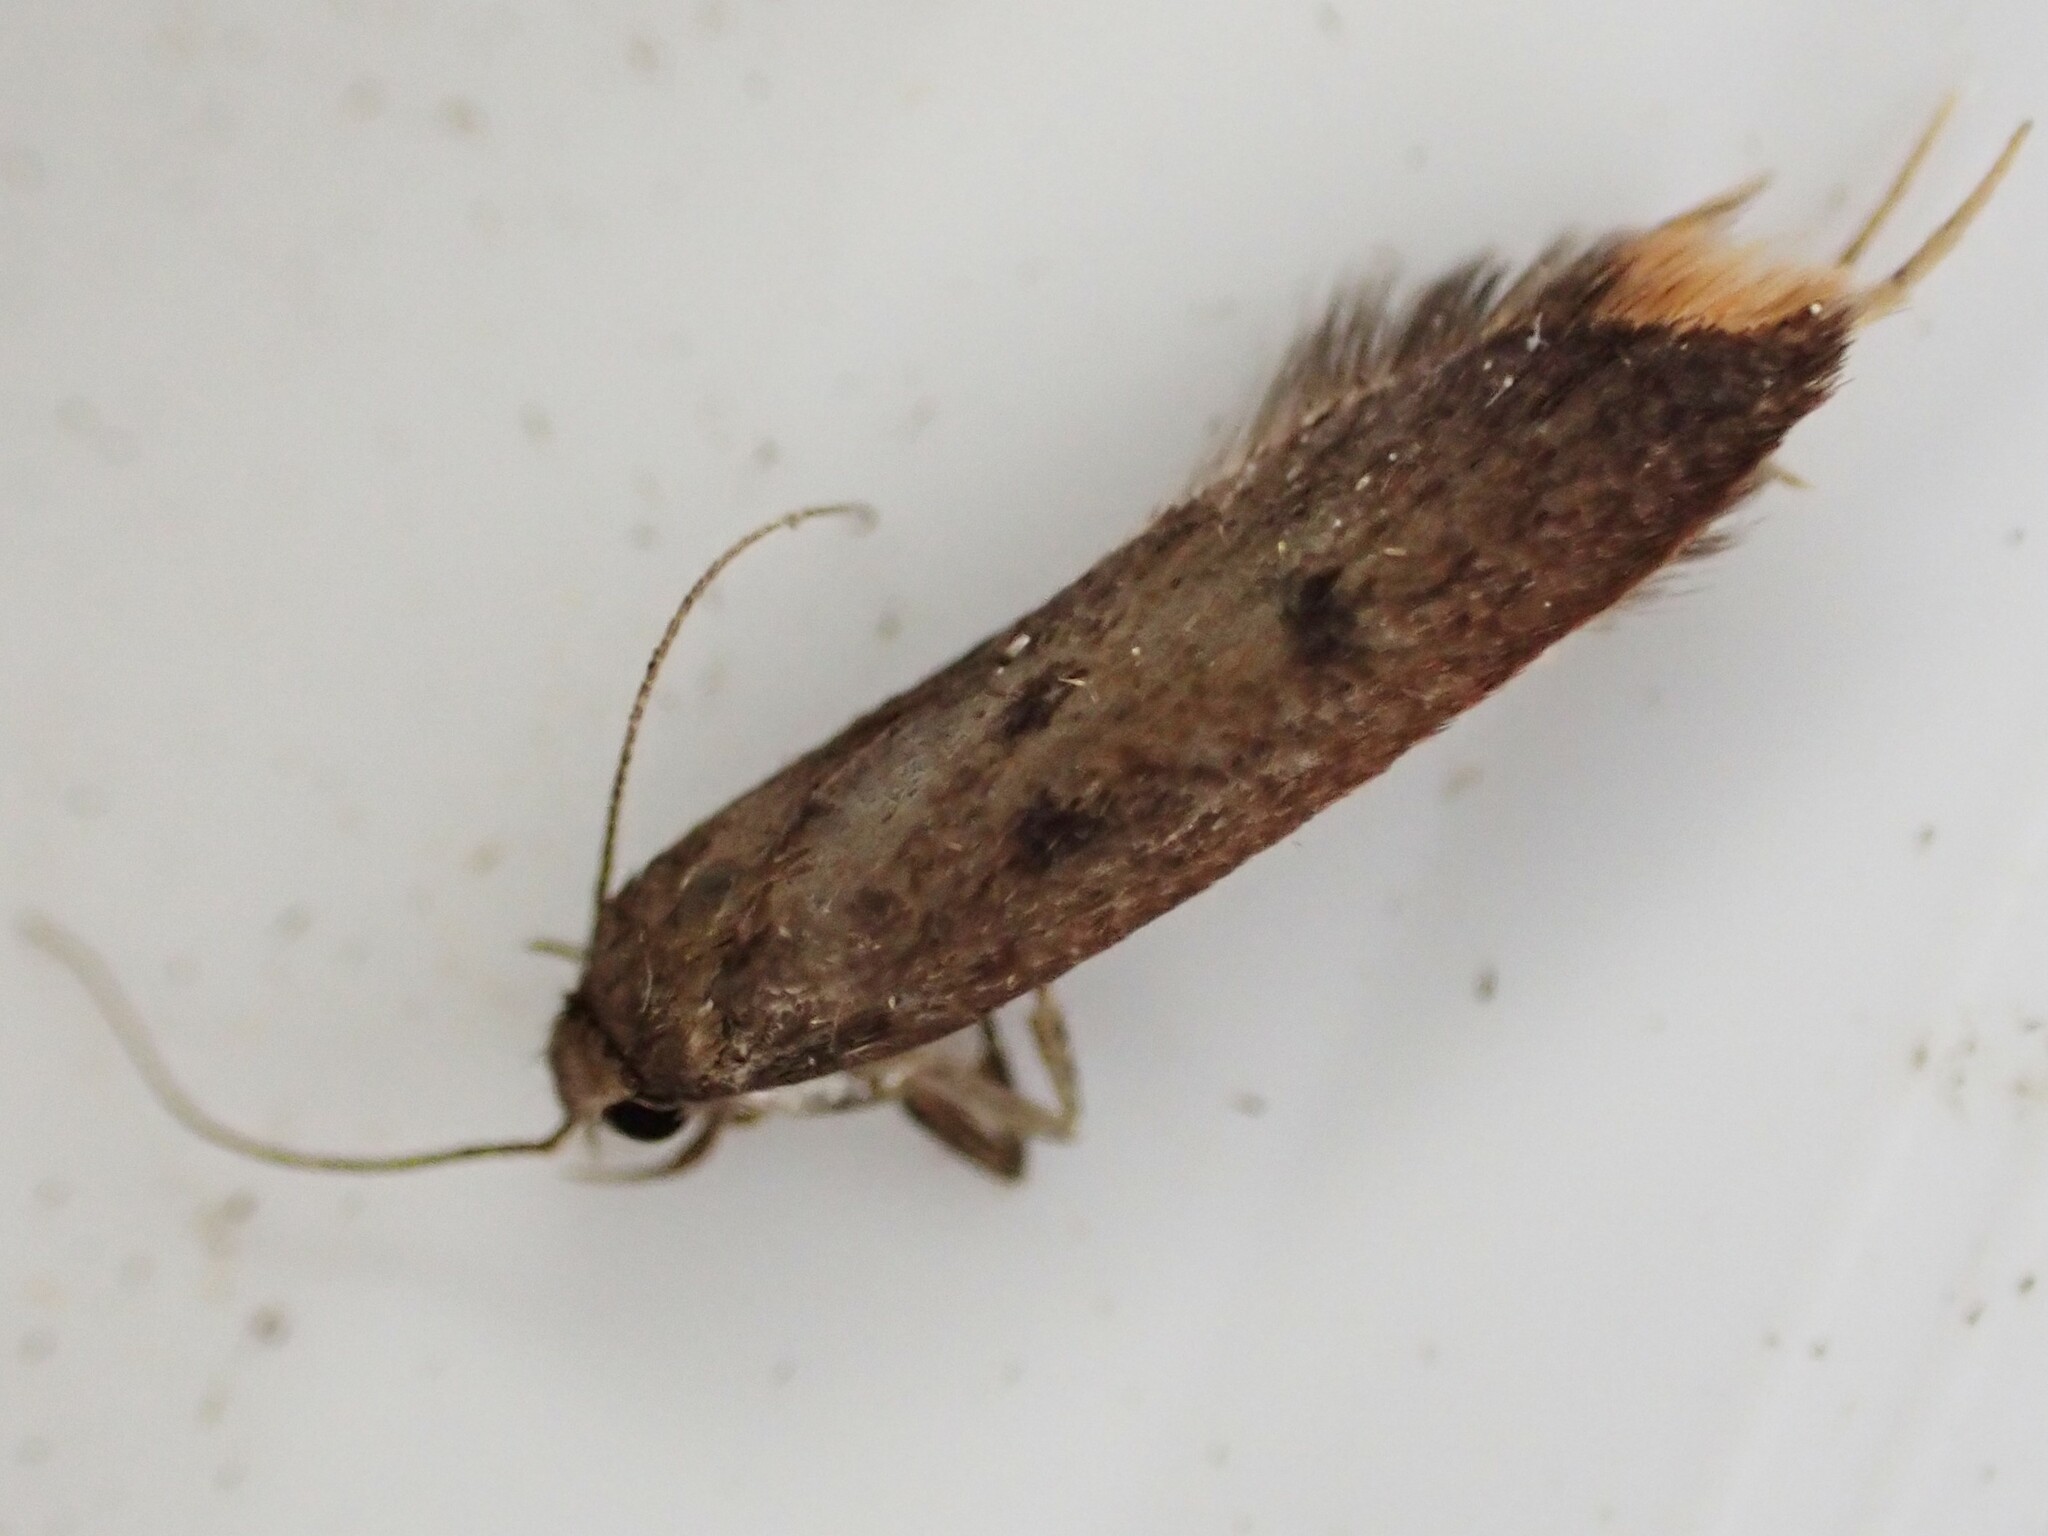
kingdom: Animalia
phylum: Arthropoda
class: Insecta
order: Lepidoptera
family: Oecophoridae
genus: Tachystola
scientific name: Tachystola acroxantha
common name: Ruddy streak
